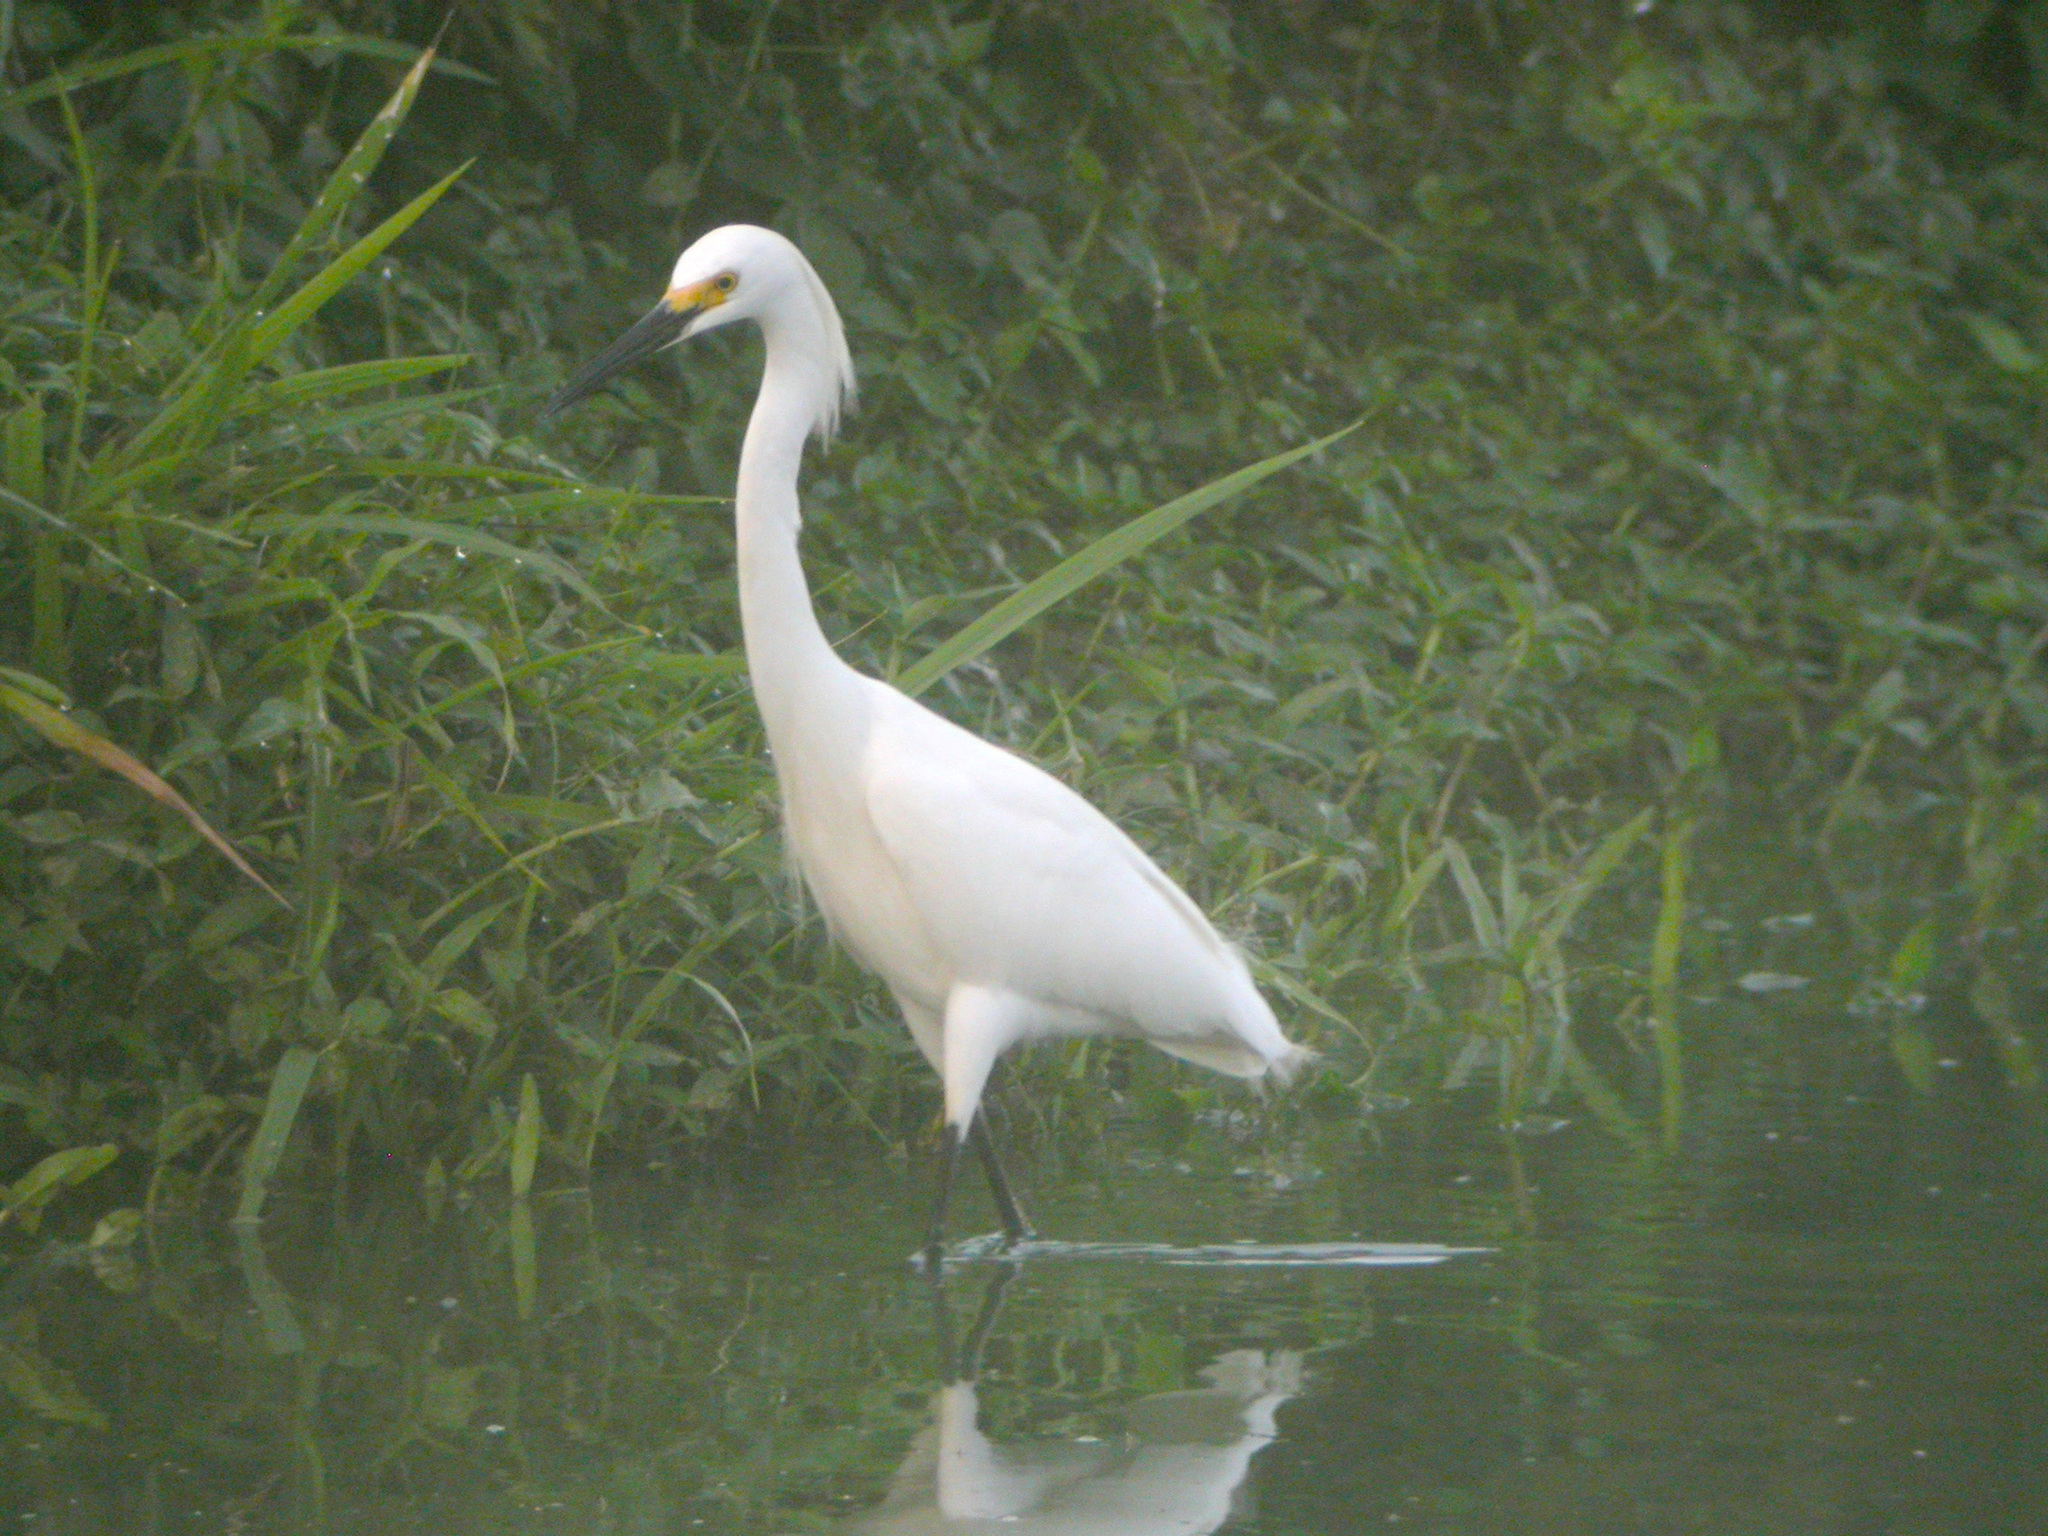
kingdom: Animalia
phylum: Chordata
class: Aves
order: Pelecaniformes
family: Ardeidae
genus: Egretta
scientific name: Egretta thula
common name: Snowy egret
